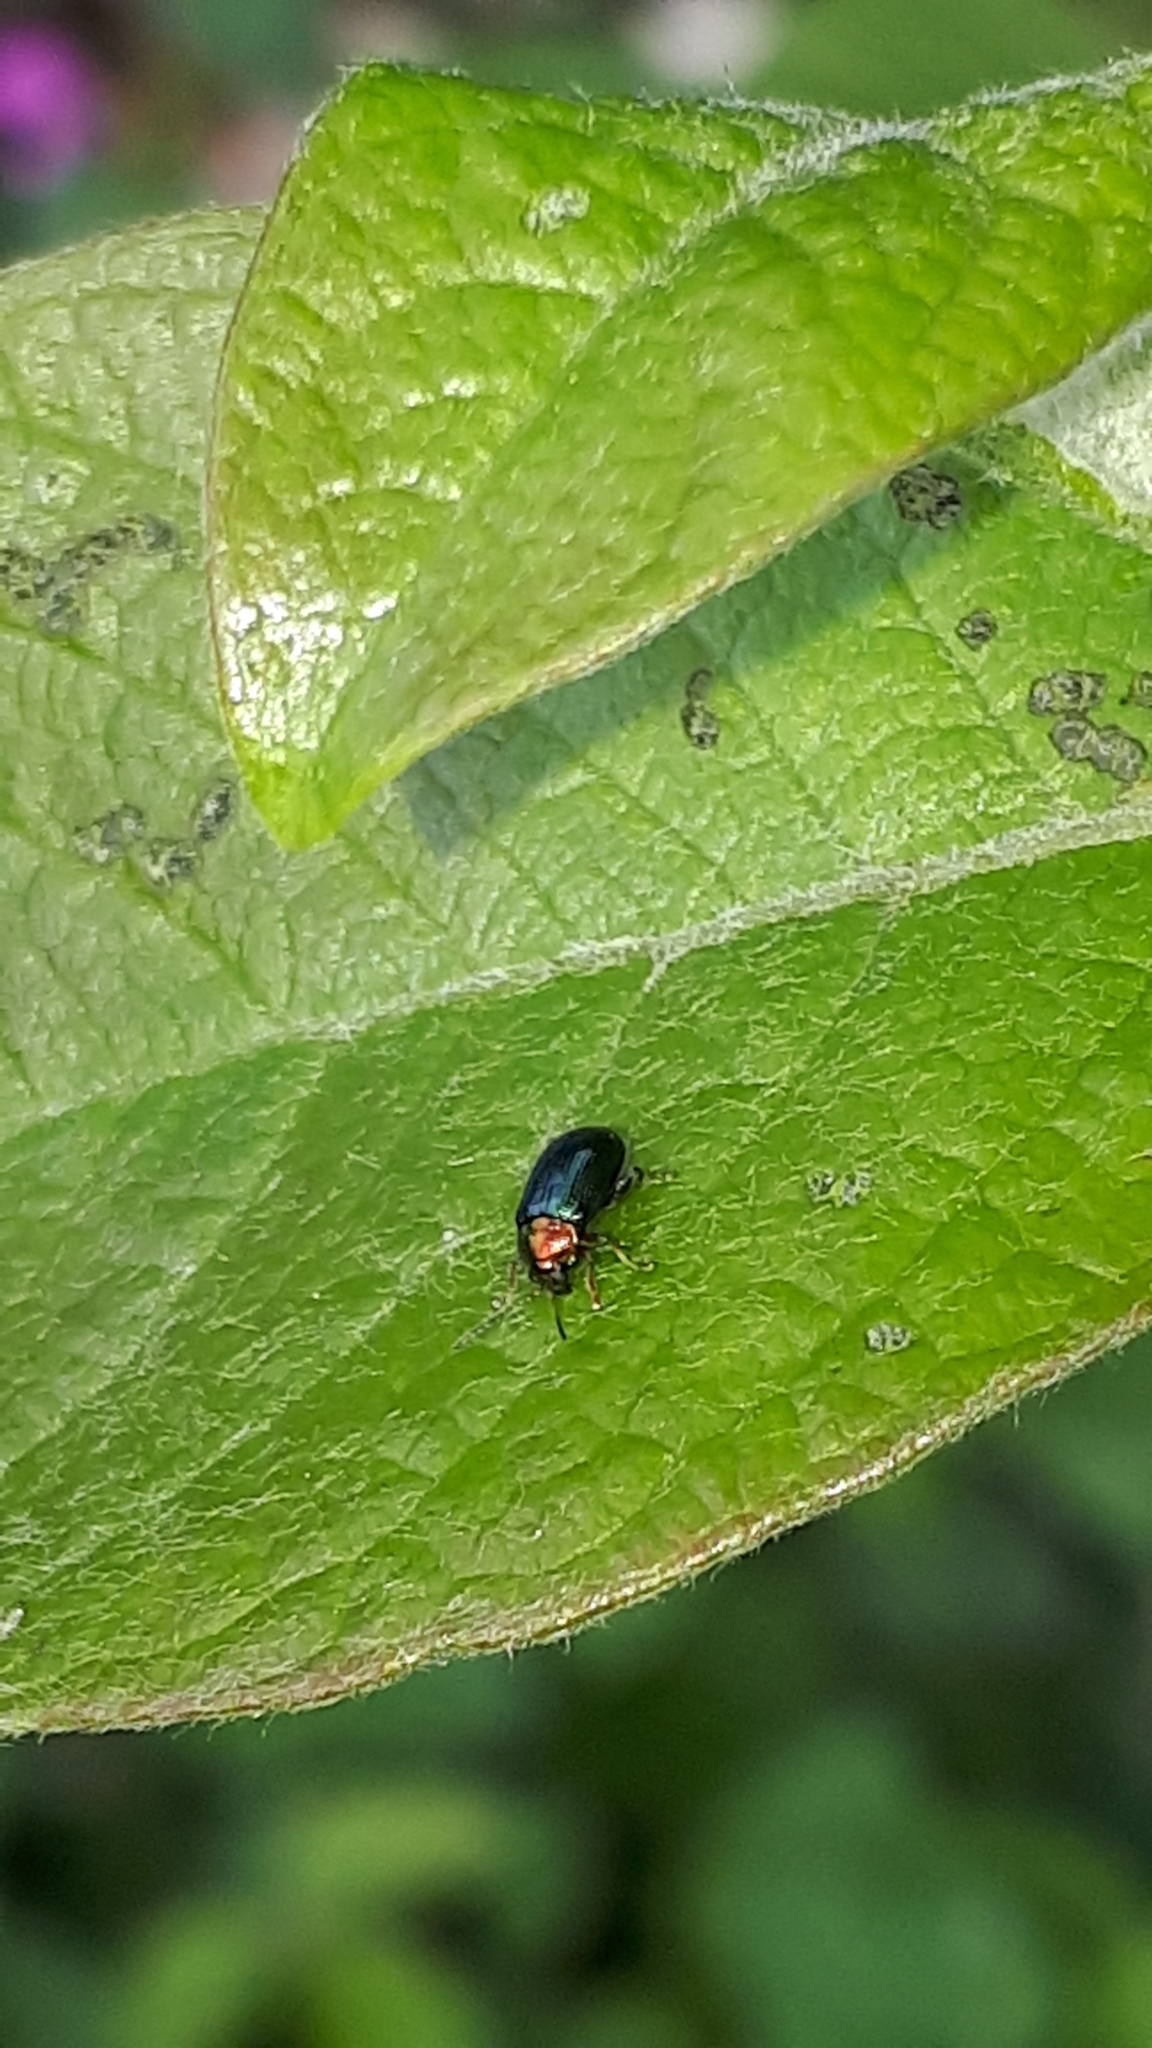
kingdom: Animalia
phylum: Arthropoda
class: Insecta
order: Coleoptera
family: Chrysomelidae
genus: Crepidodera
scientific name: Crepidodera aurata
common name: Willow flea beetle
